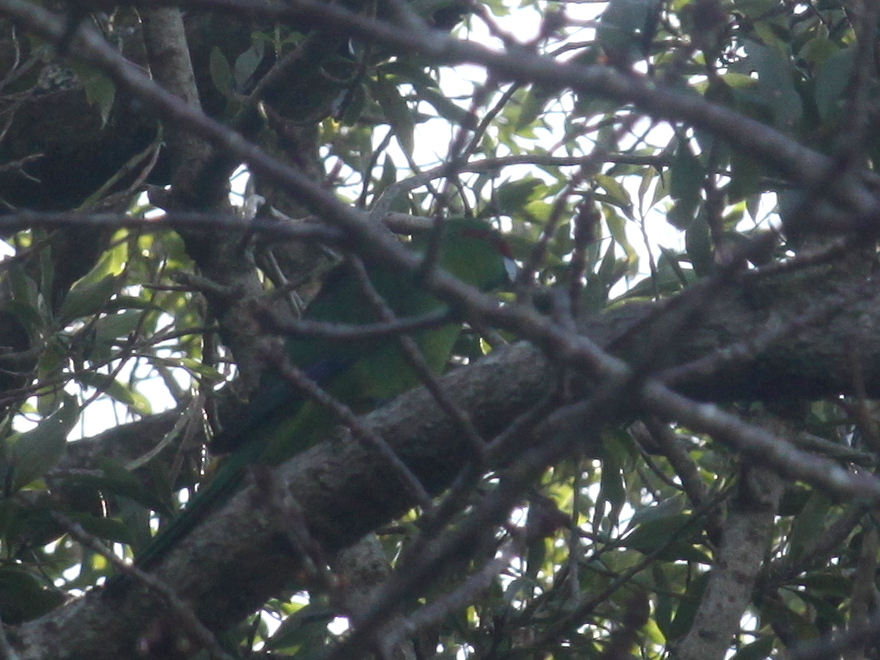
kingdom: Animalia
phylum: Chordata
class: Aves
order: Psittaciformes
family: Psittacidae
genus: Cyanoramphus
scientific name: Cyanoramphus novaezelandiae
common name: Red-fronted parakeet
